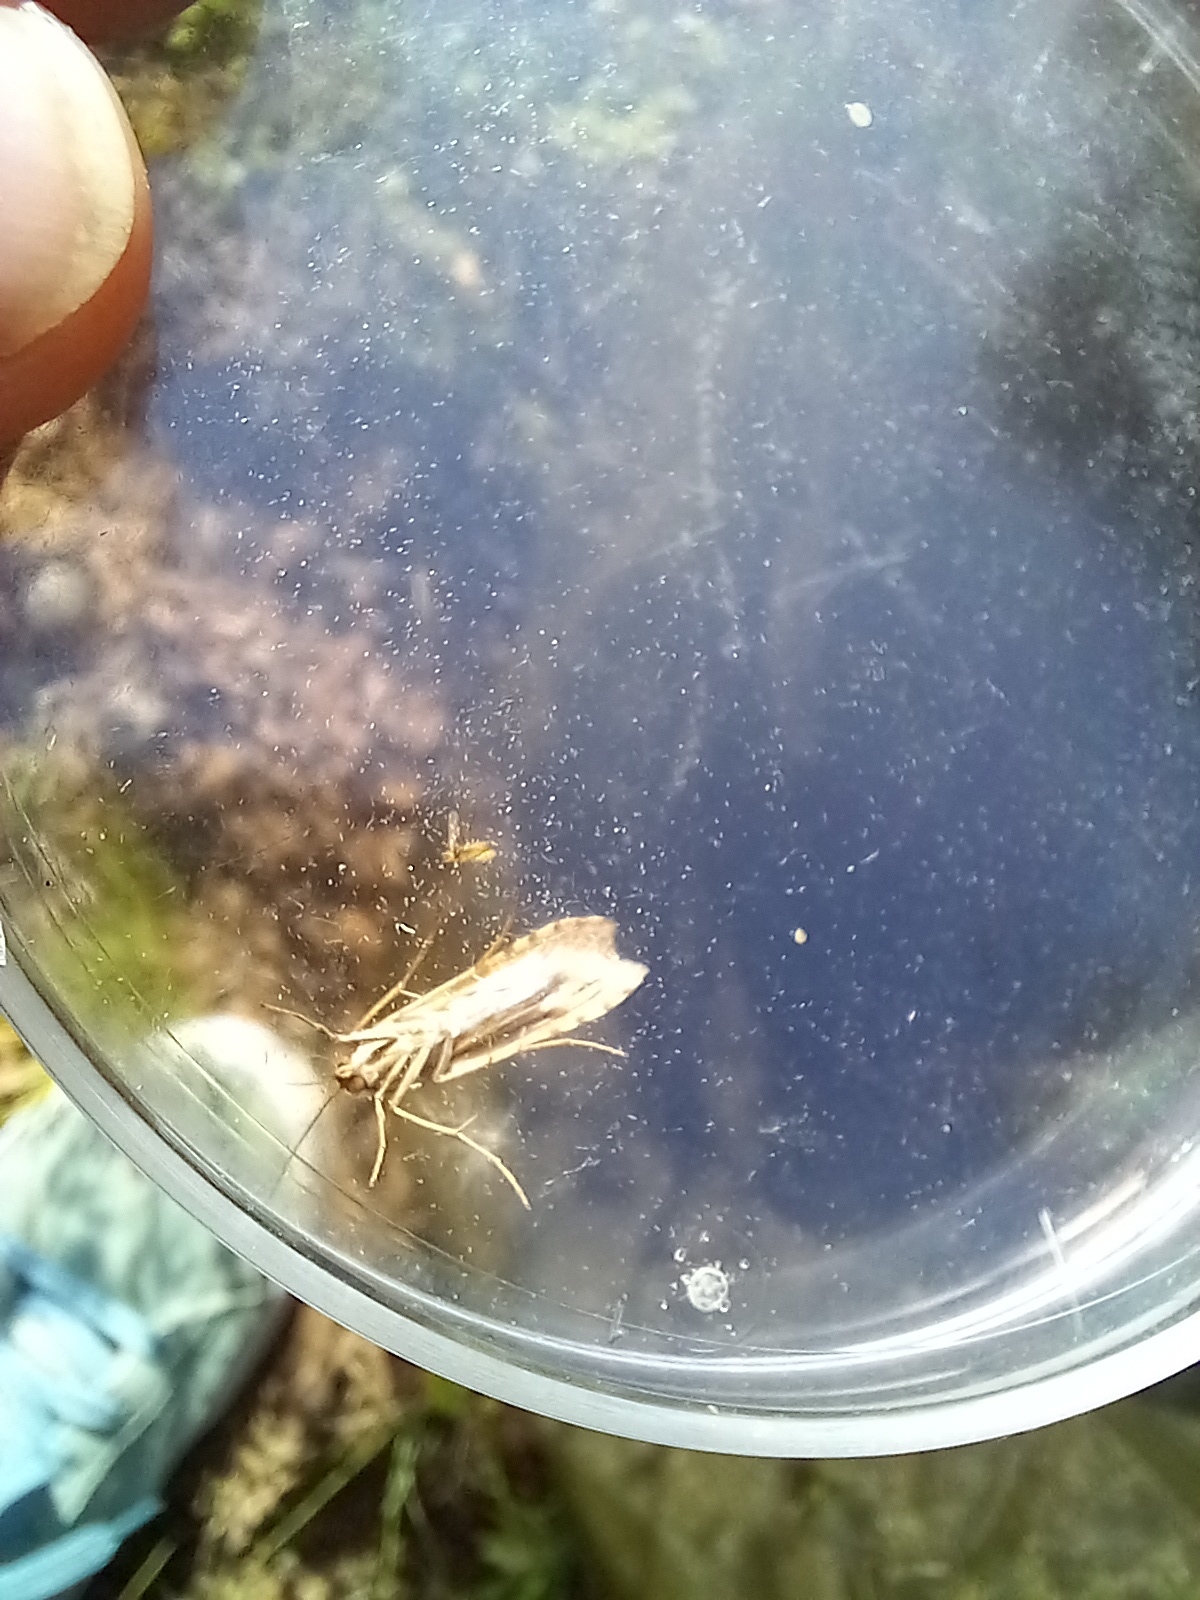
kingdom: Animalia
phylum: Arthropoda
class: Insecta
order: Lepidoptera
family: Crambidae
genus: Nomophila
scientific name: Nomophila noctuella
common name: Rush veneer
